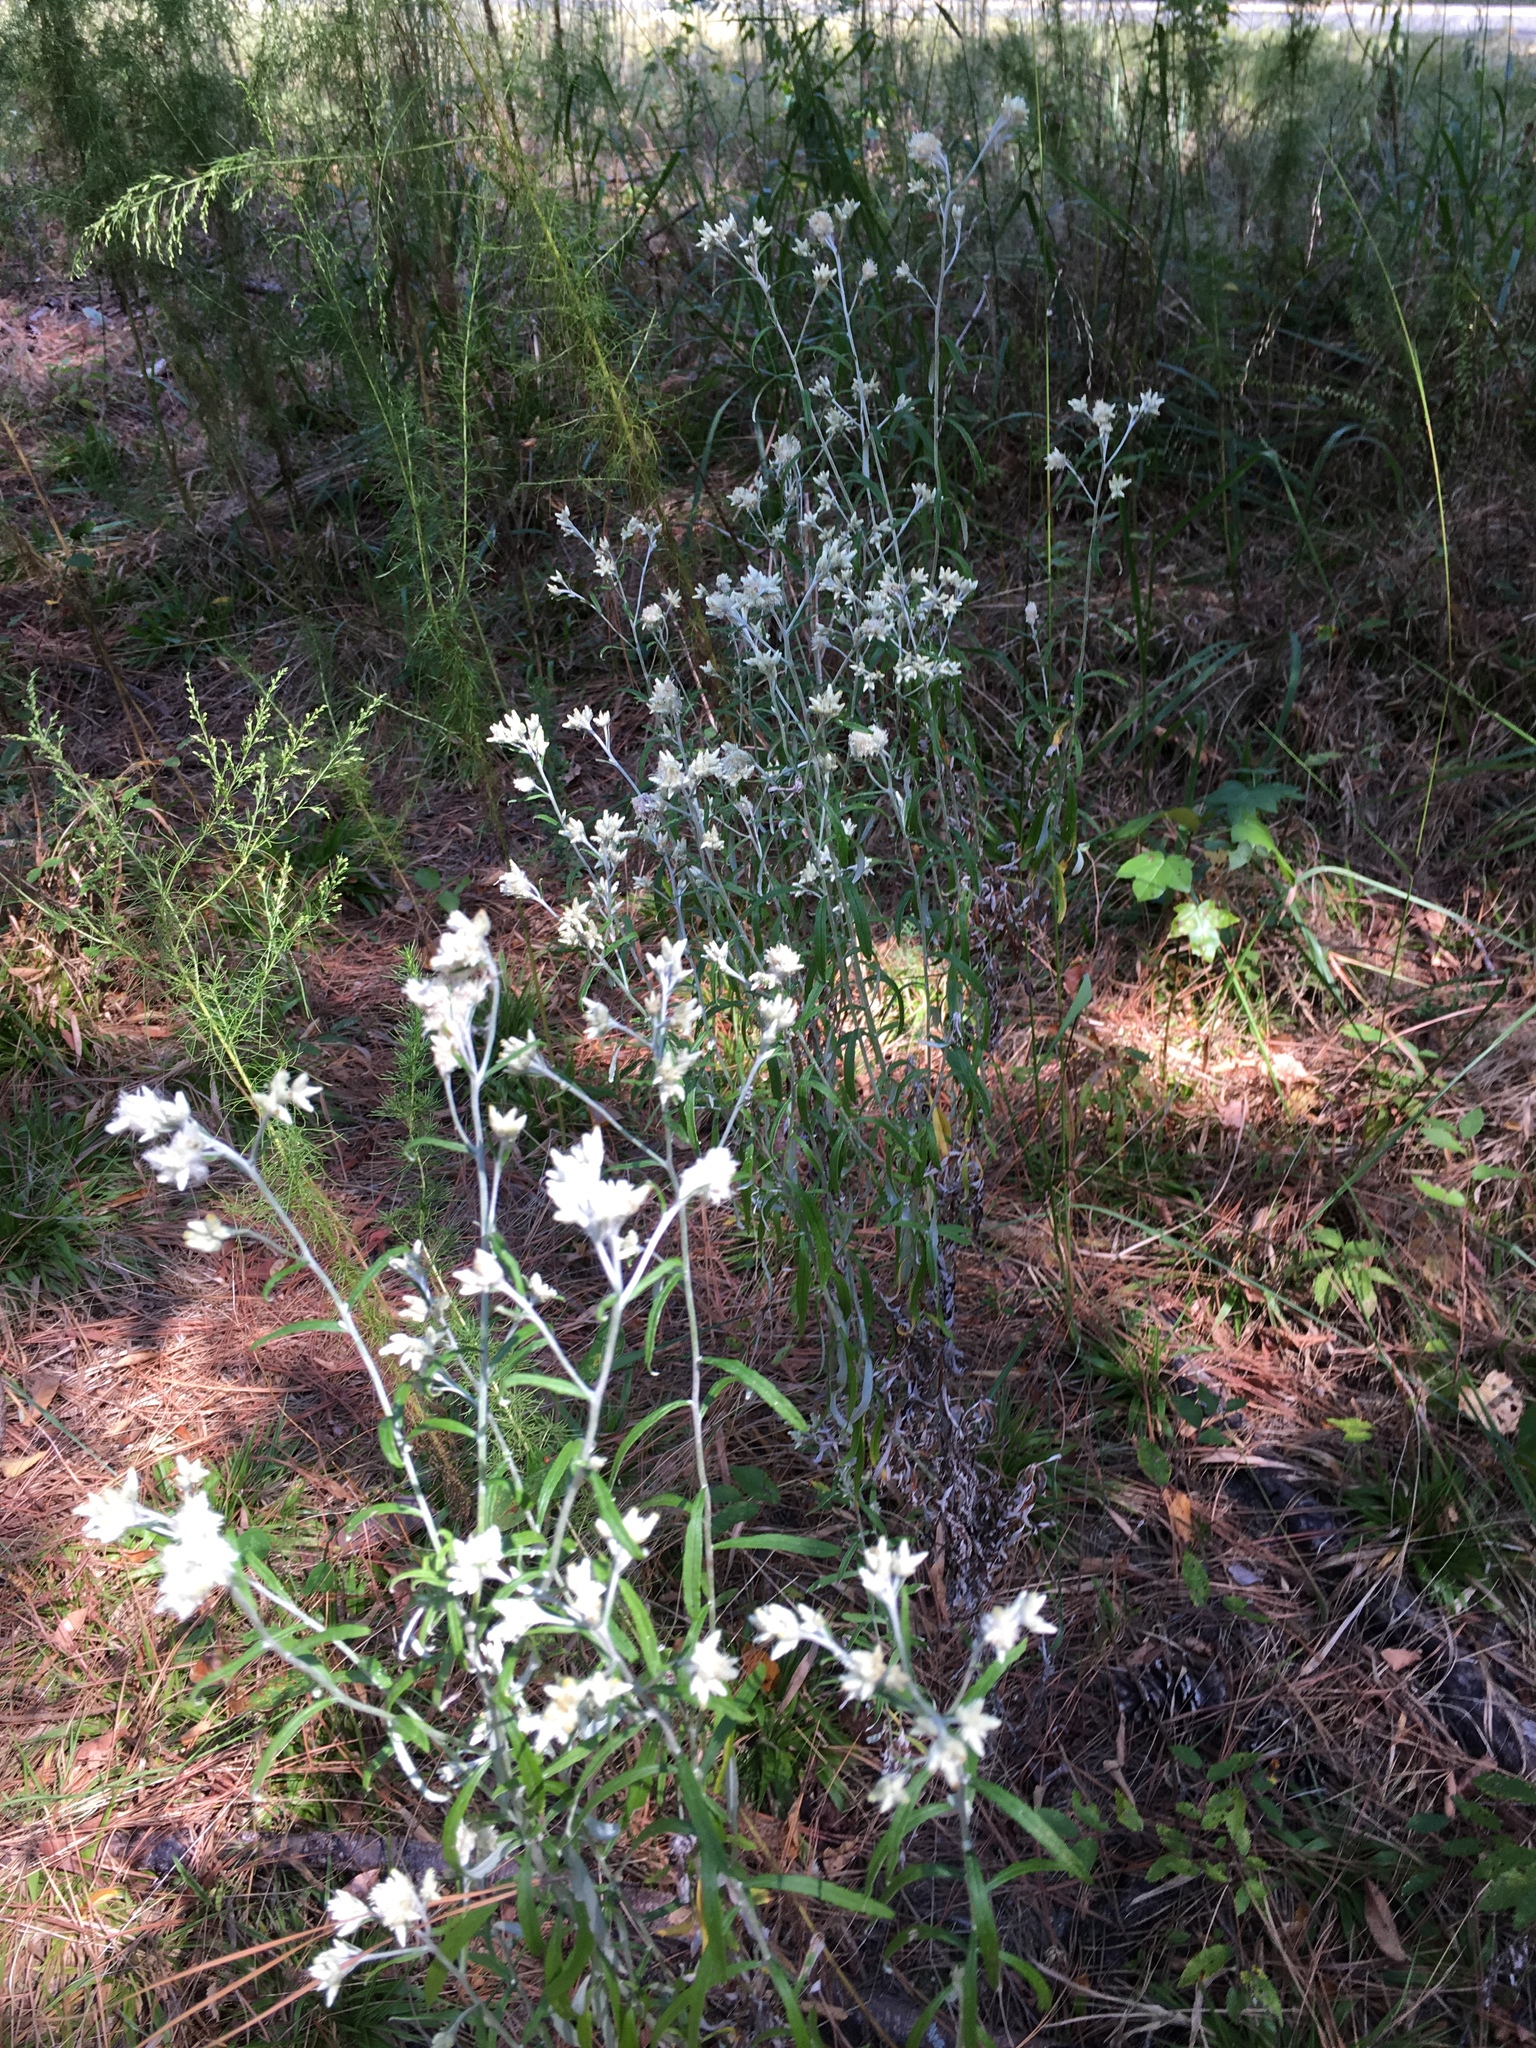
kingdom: Plantae
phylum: Tracheophyta
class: Magnoliopsida
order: Asterales
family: Asteraceae
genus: Pseudognaphalium
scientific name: Pseudognaphalium obtusifolium
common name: Eastern rabbit-tobacco
